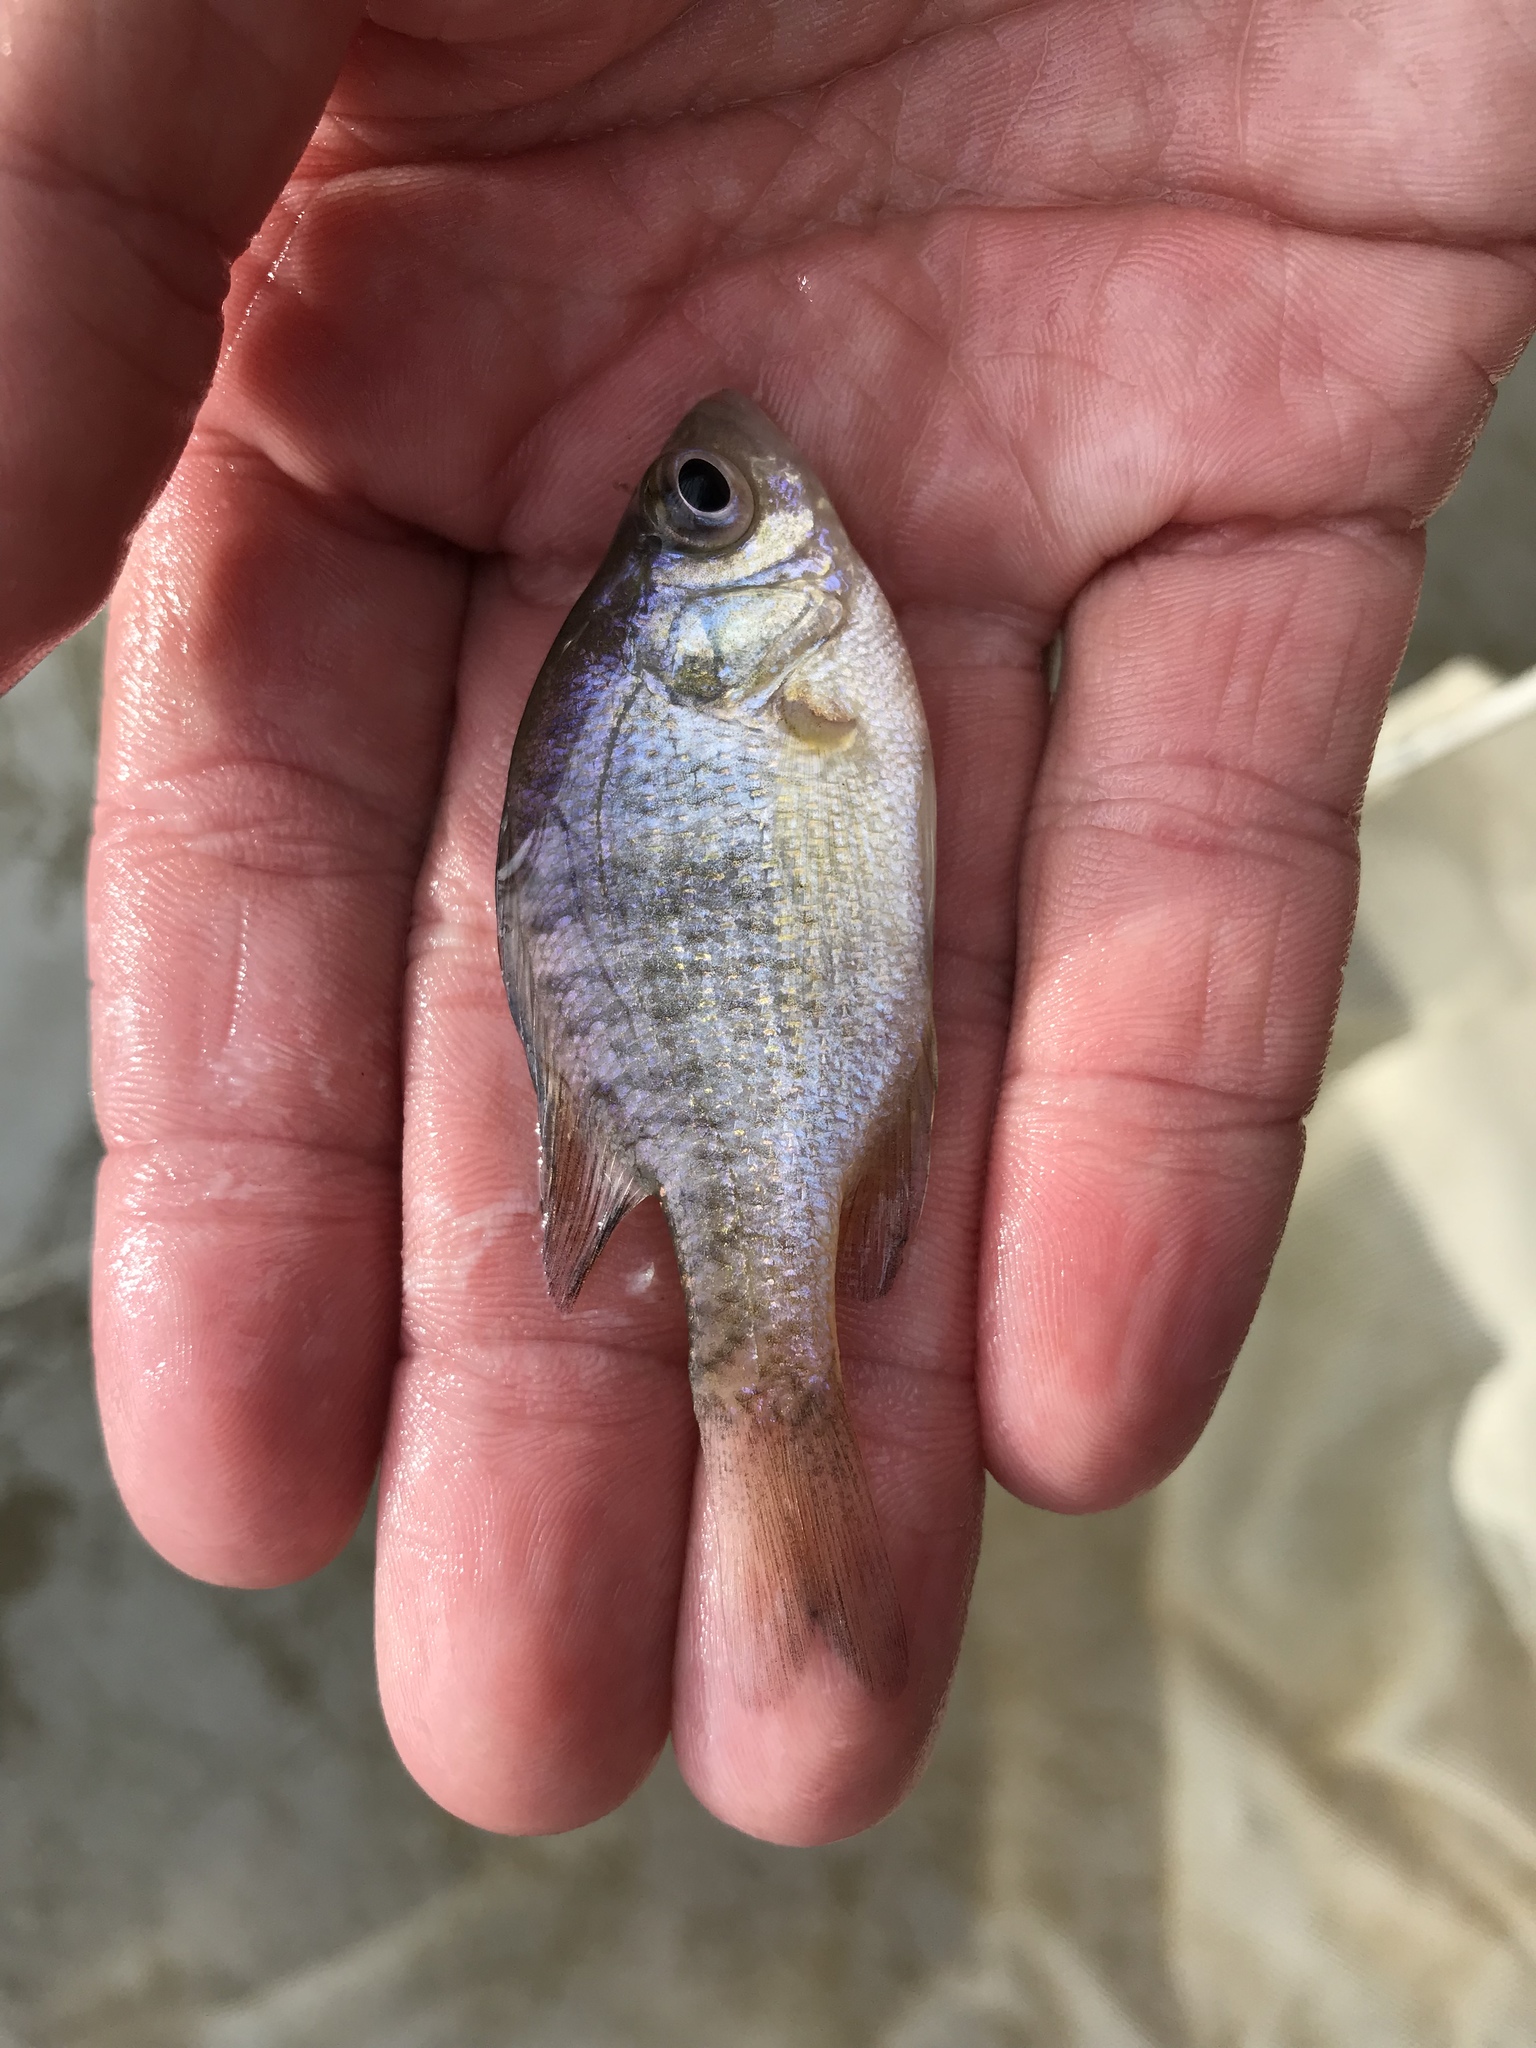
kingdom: Animalia
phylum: Chordata
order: Perciformes
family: Centrarchidae
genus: Lepomis
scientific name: Lepomis macrochirus
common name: Bluegill
